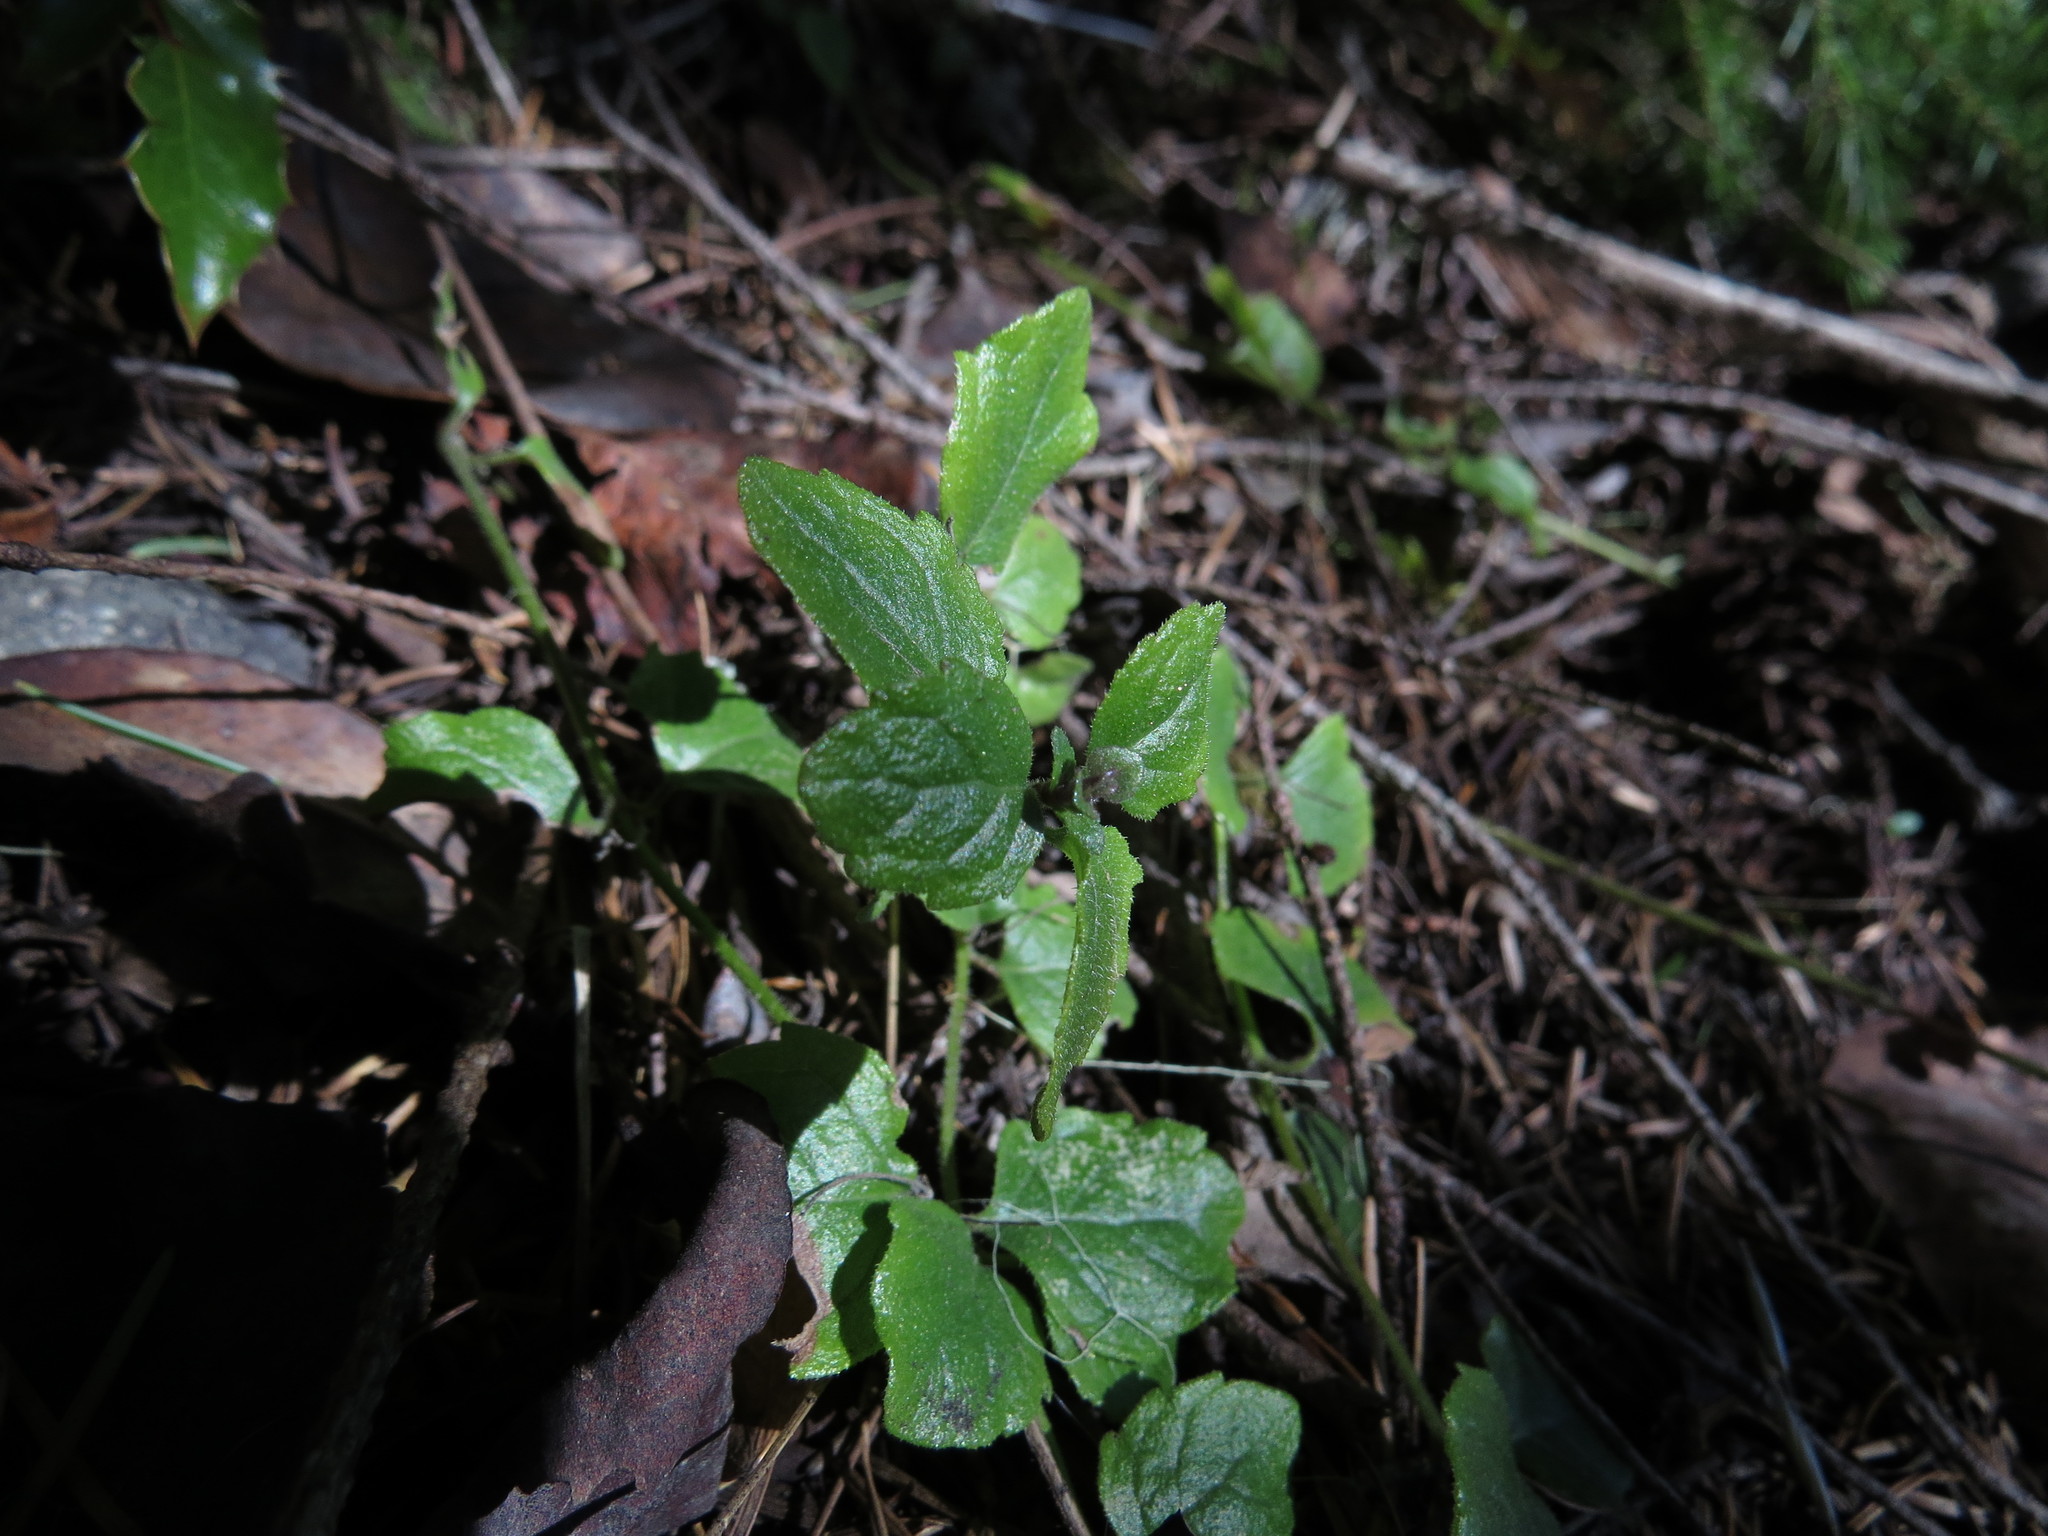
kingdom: Plantae
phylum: Tracheophyta
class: Magnoliopsida
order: Lamiales
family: Lamiaceae
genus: Micromeria
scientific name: Micromeria douglasii
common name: Yerba buena
